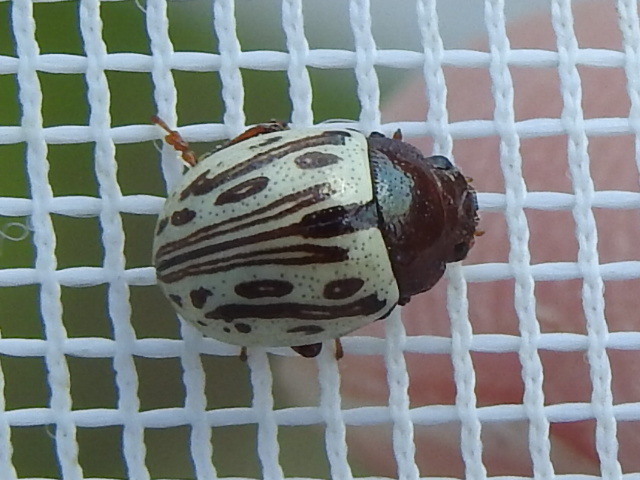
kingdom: Animalia
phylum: Arthropoda
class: Insecta
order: Coleoptera
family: Chrysomelidae
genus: Calligrapha
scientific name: Calligrapha
